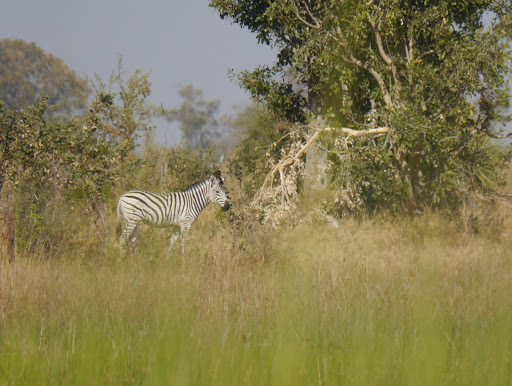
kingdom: Animalia
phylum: Chordata
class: Mammalia
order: Perissodactyla
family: Equidae
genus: Equus
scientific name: Equus quagga
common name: Plains zebra
